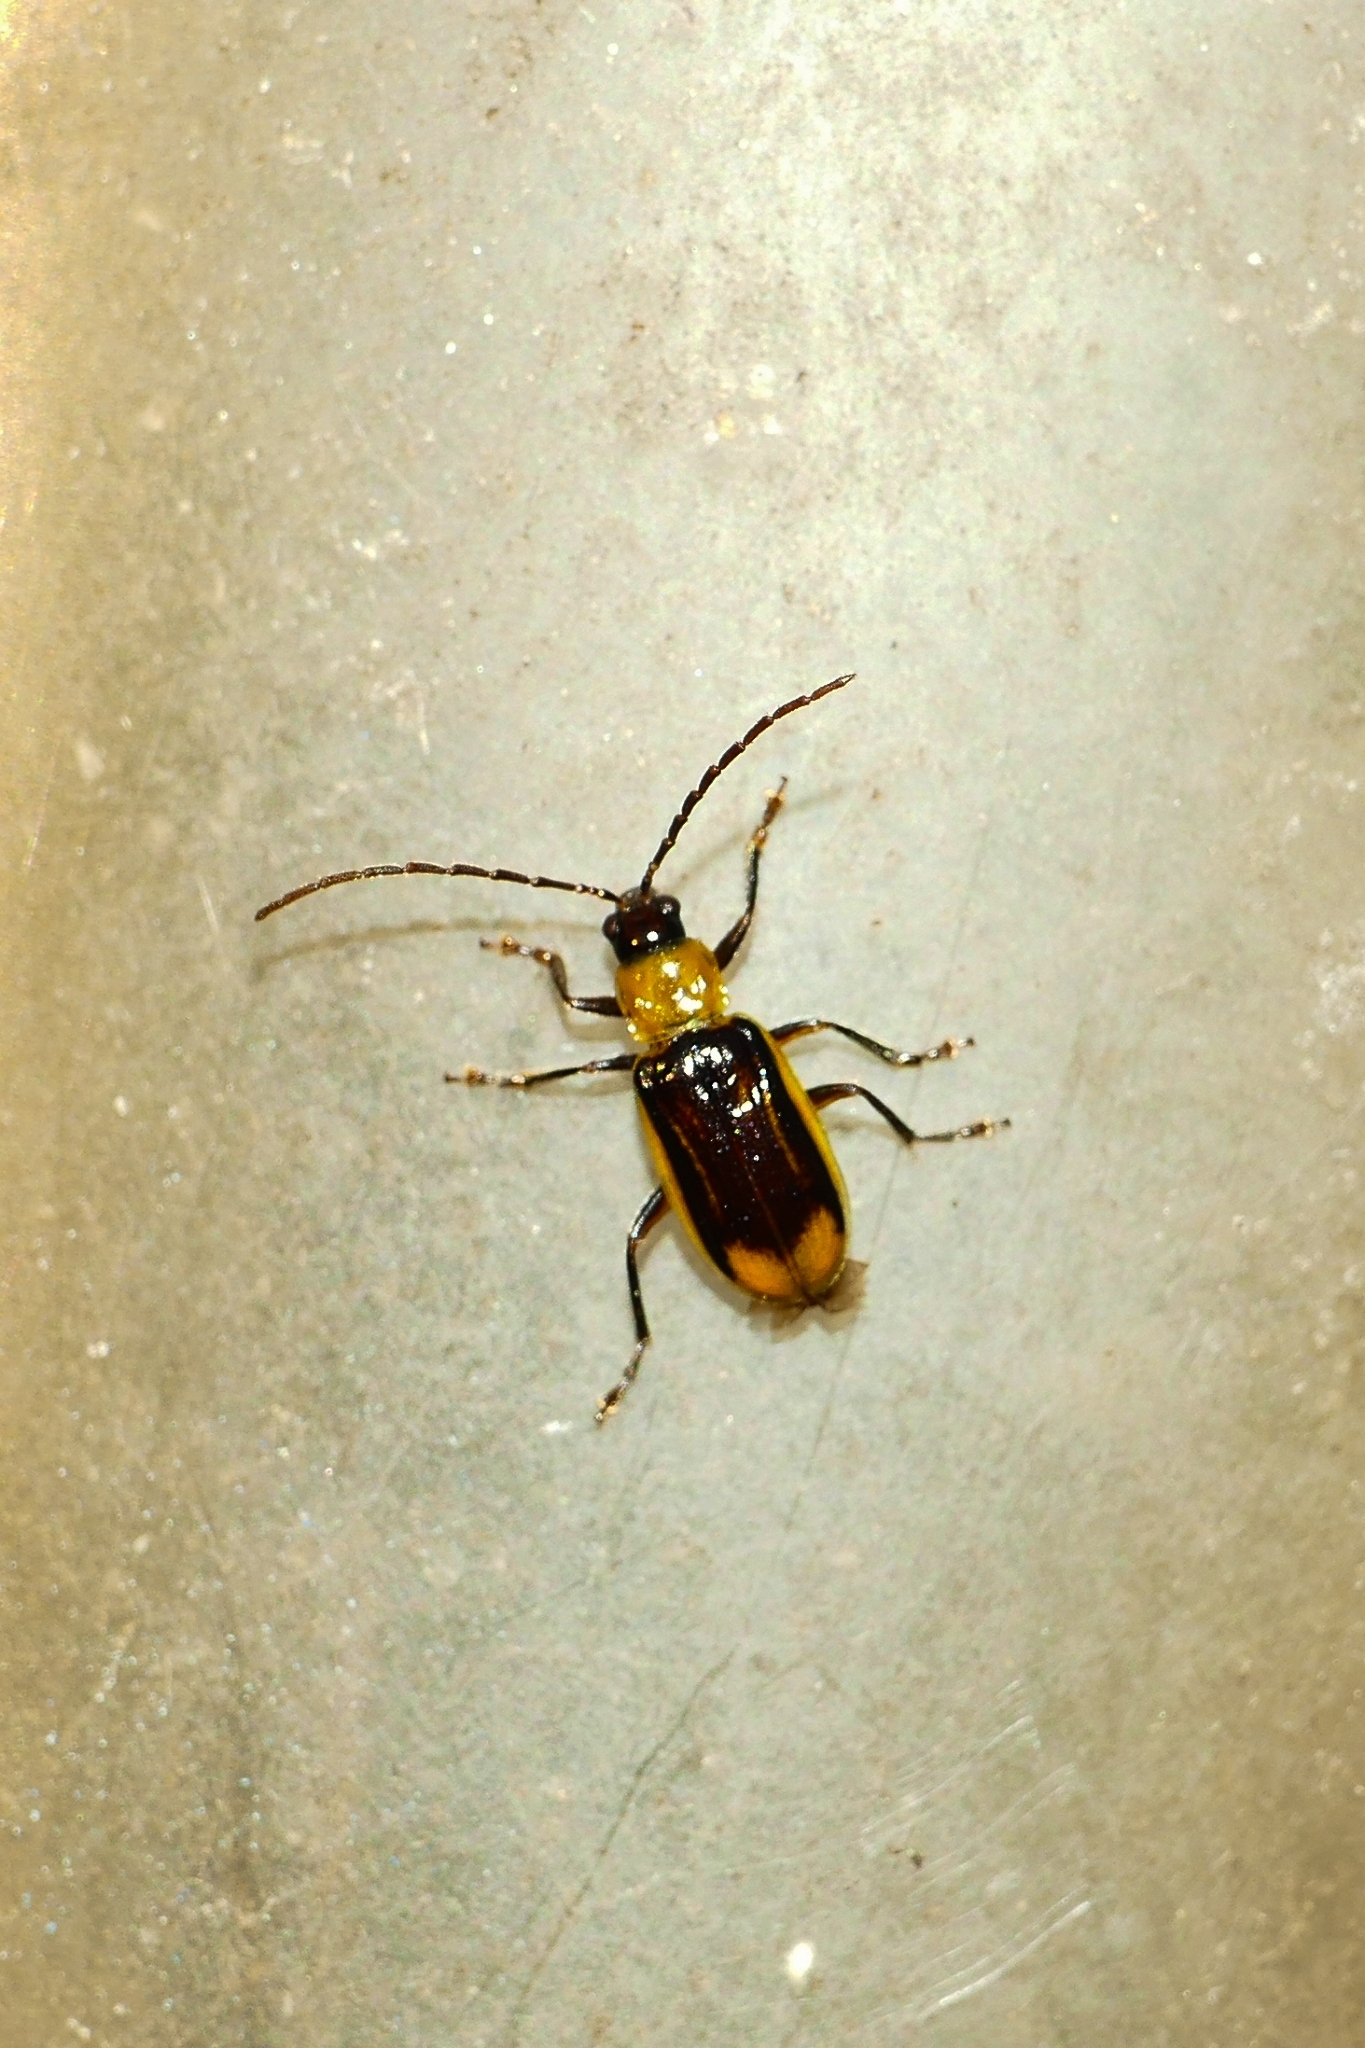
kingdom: Animalia
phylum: Arthropoda
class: Insecta
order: Coleoptera
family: Chrysomelidae
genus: Diabrotica
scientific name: Diabrotica virgifera
